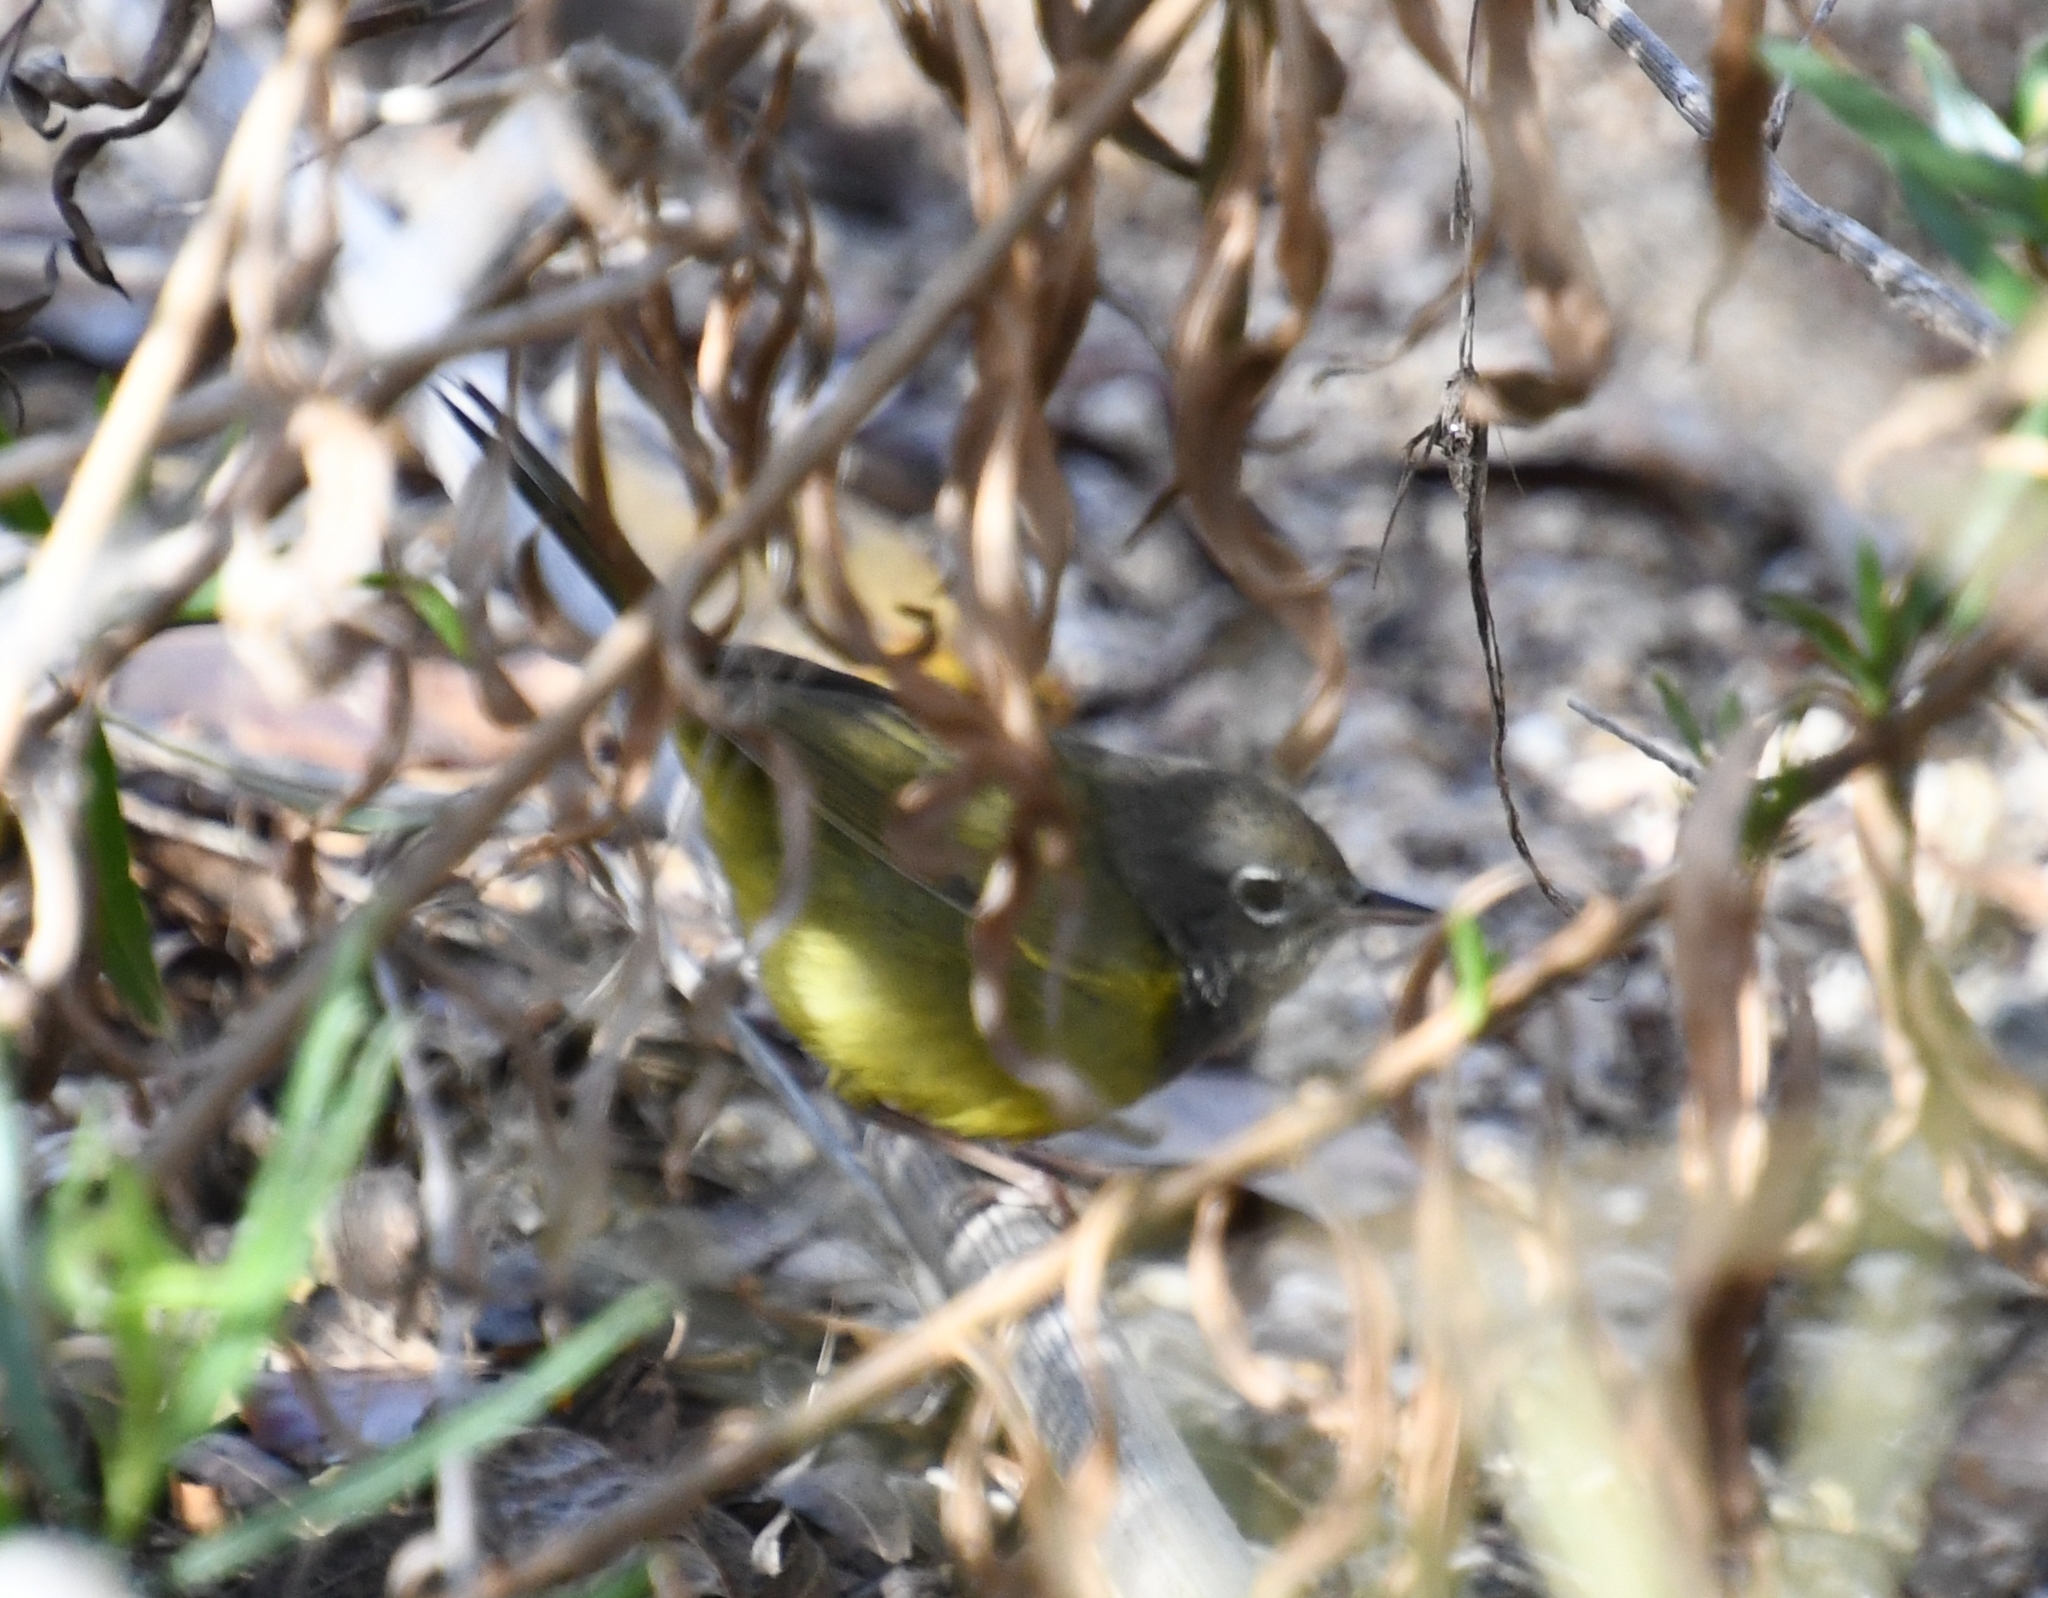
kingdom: Animalia
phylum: Chordata
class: Aves
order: Passeriformes
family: Parulidae
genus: Geothlypis
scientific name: Geothlypis tolmiei
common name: Macgillivray's warbler
